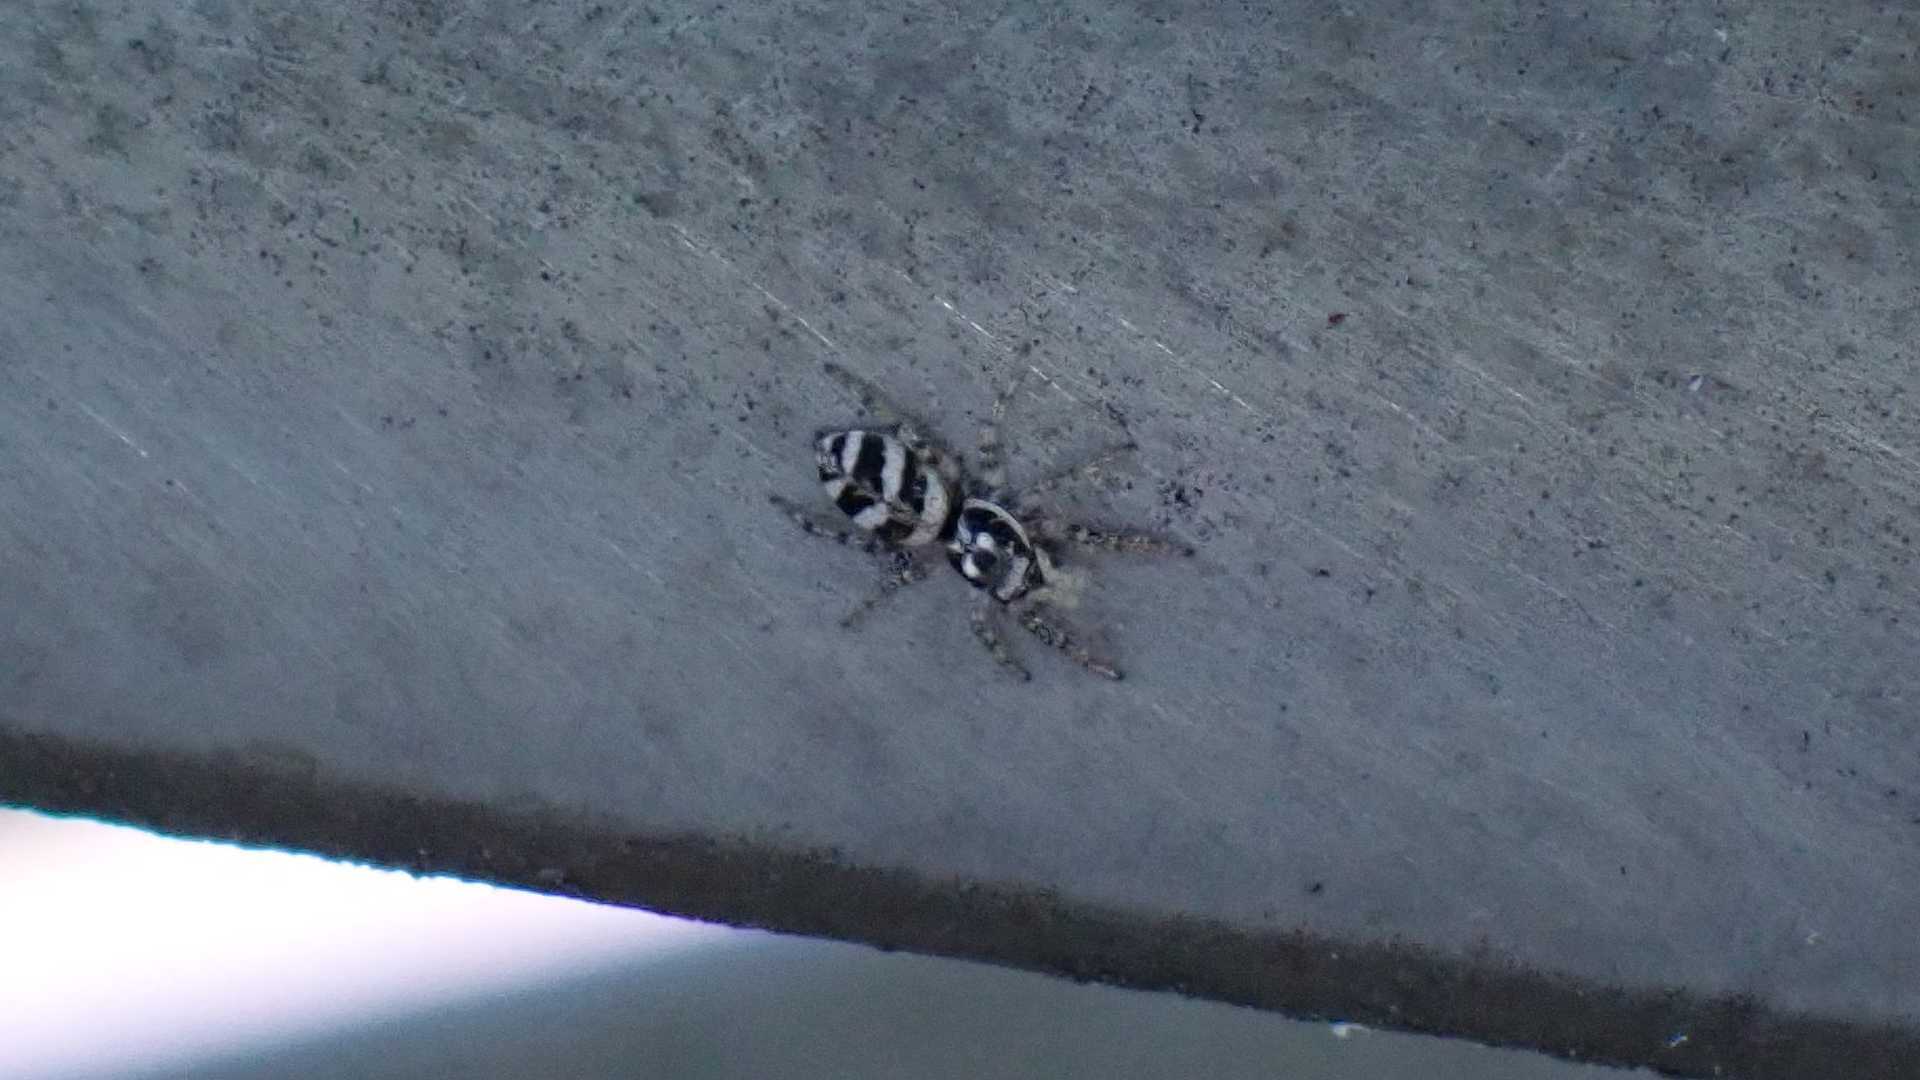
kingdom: Animalia
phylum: Arthropoda
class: Arachnida
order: Araneae
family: Salticidae
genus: Salticus
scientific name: Salticus scenicus
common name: Zebra jumper
